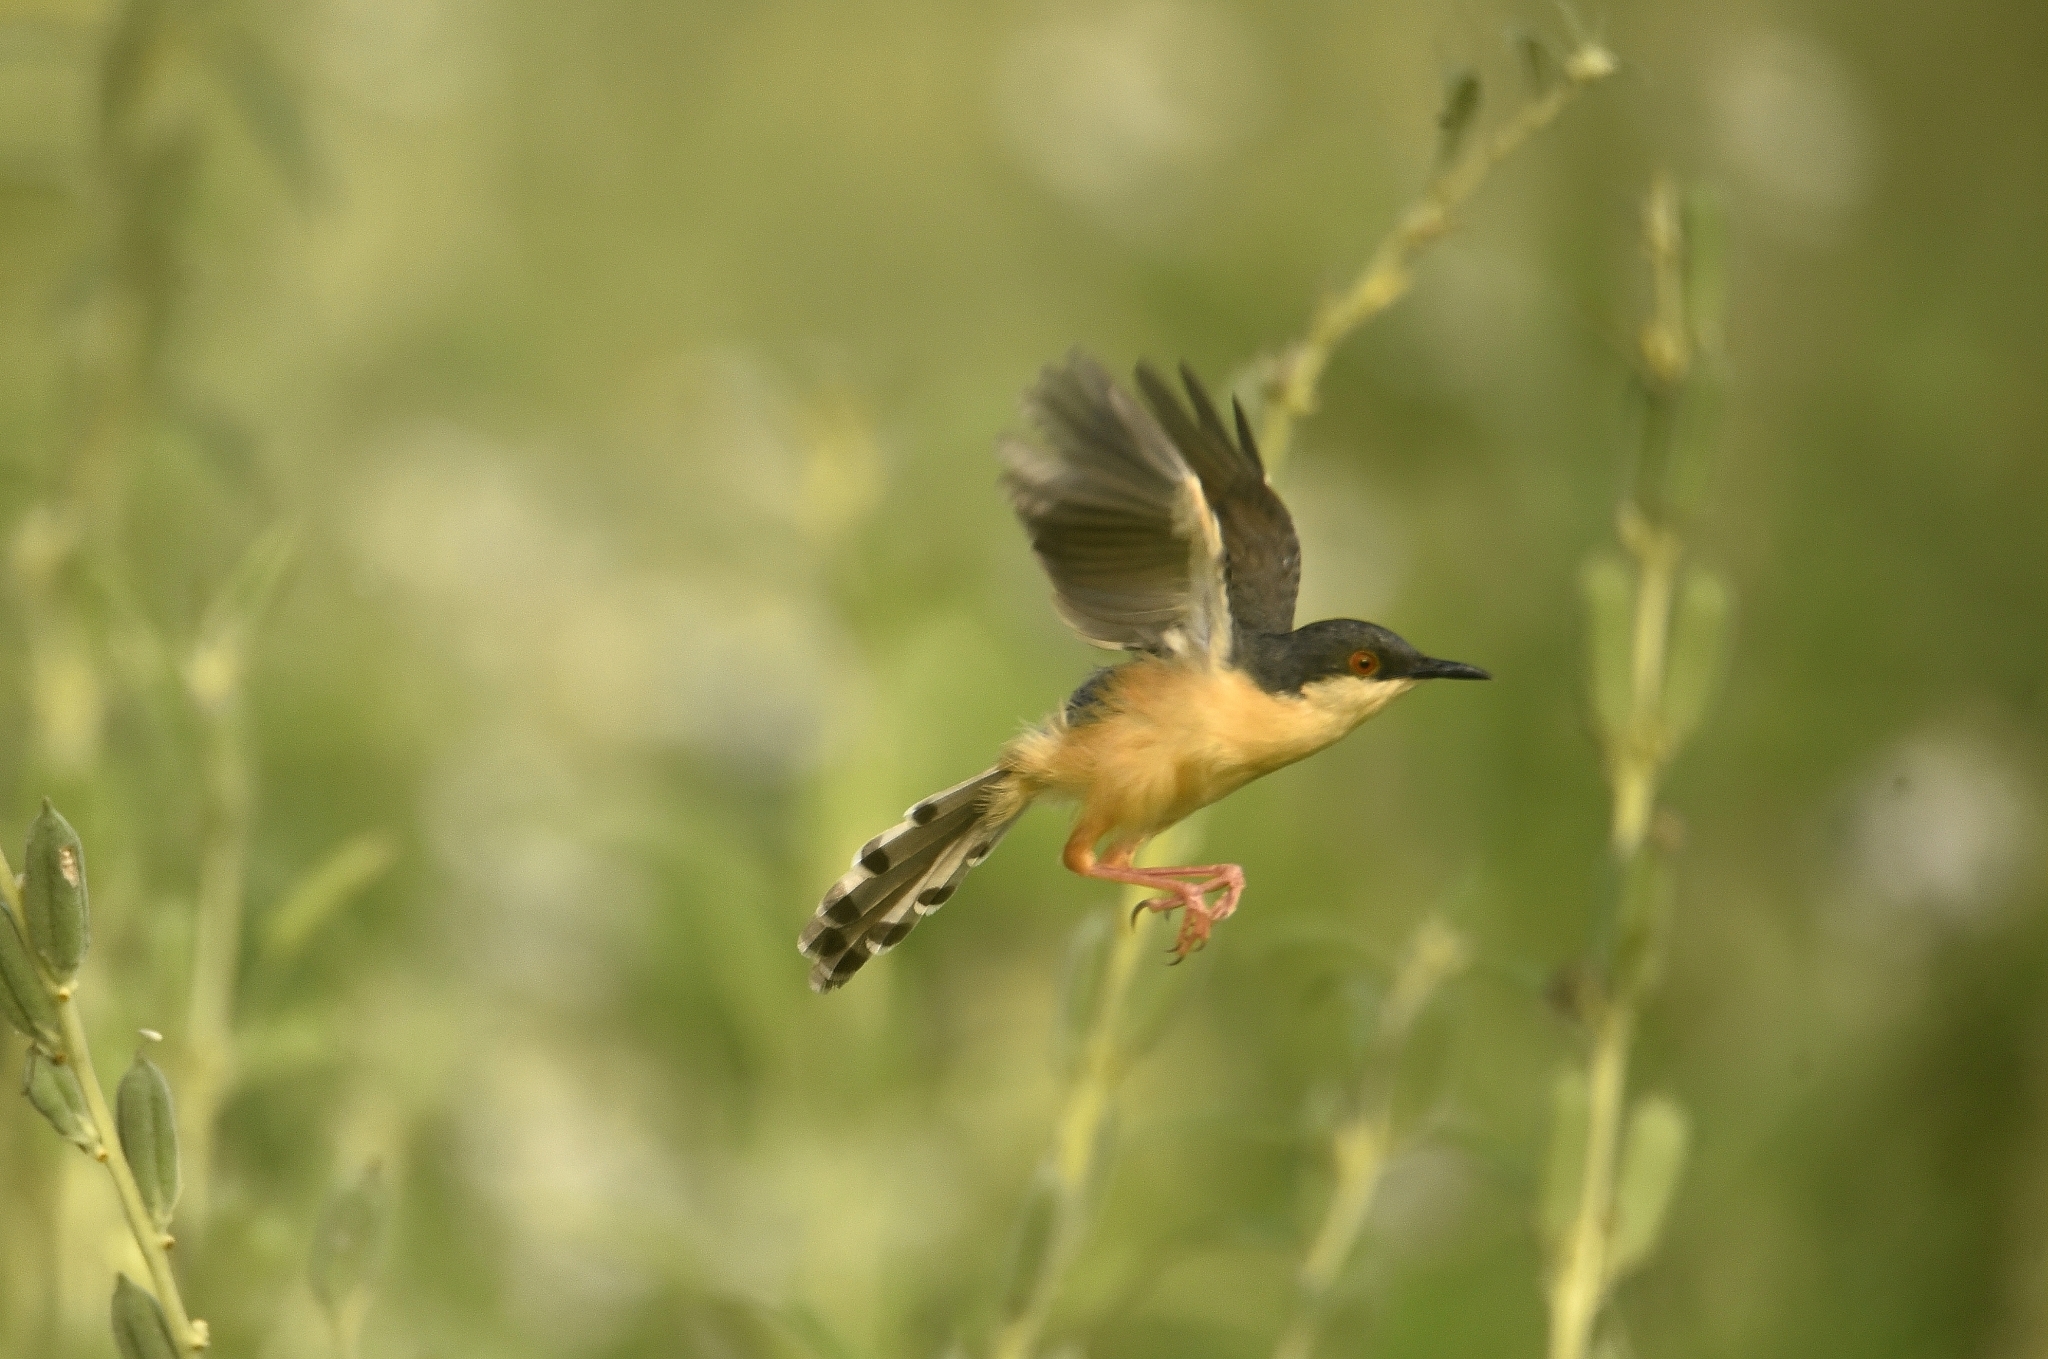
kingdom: Animalia
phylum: Chordata
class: Aves
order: Passeriformes
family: Cisticolidae
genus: Prinia
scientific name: Prinia socialis
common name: Ashy prinia
